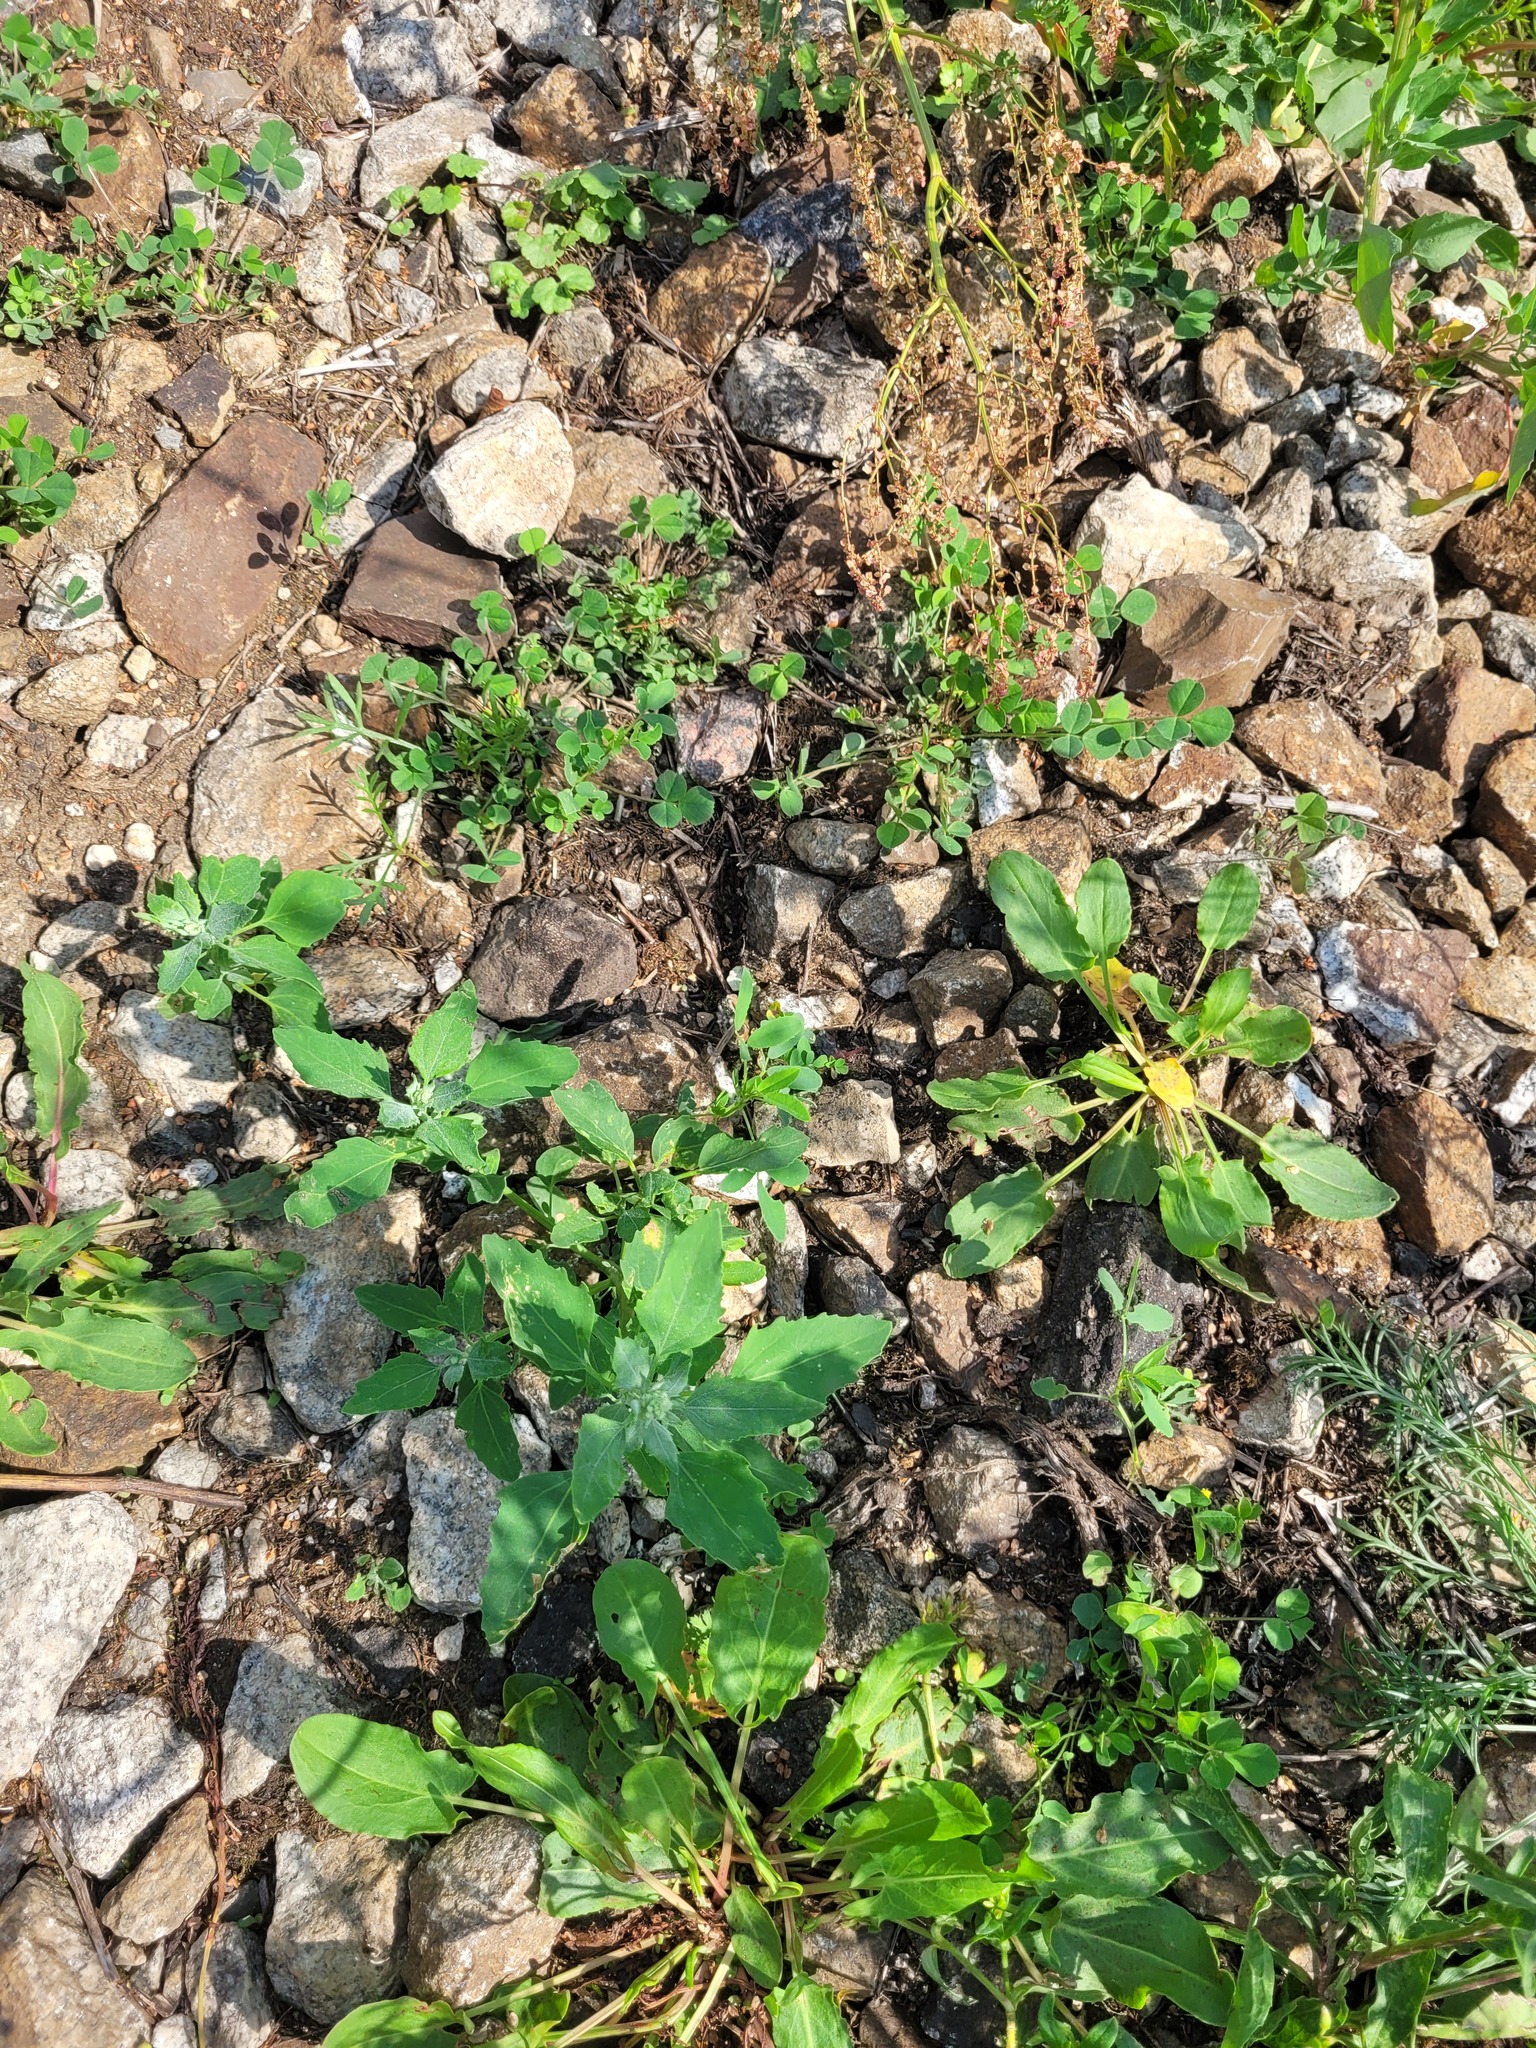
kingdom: Plantae
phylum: Tracheophyta
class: Magnoliopsida
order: Caryophyllales
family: Amaranthaceae
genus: Chenopodium
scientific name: Chenopodium album
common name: Fat-hen
